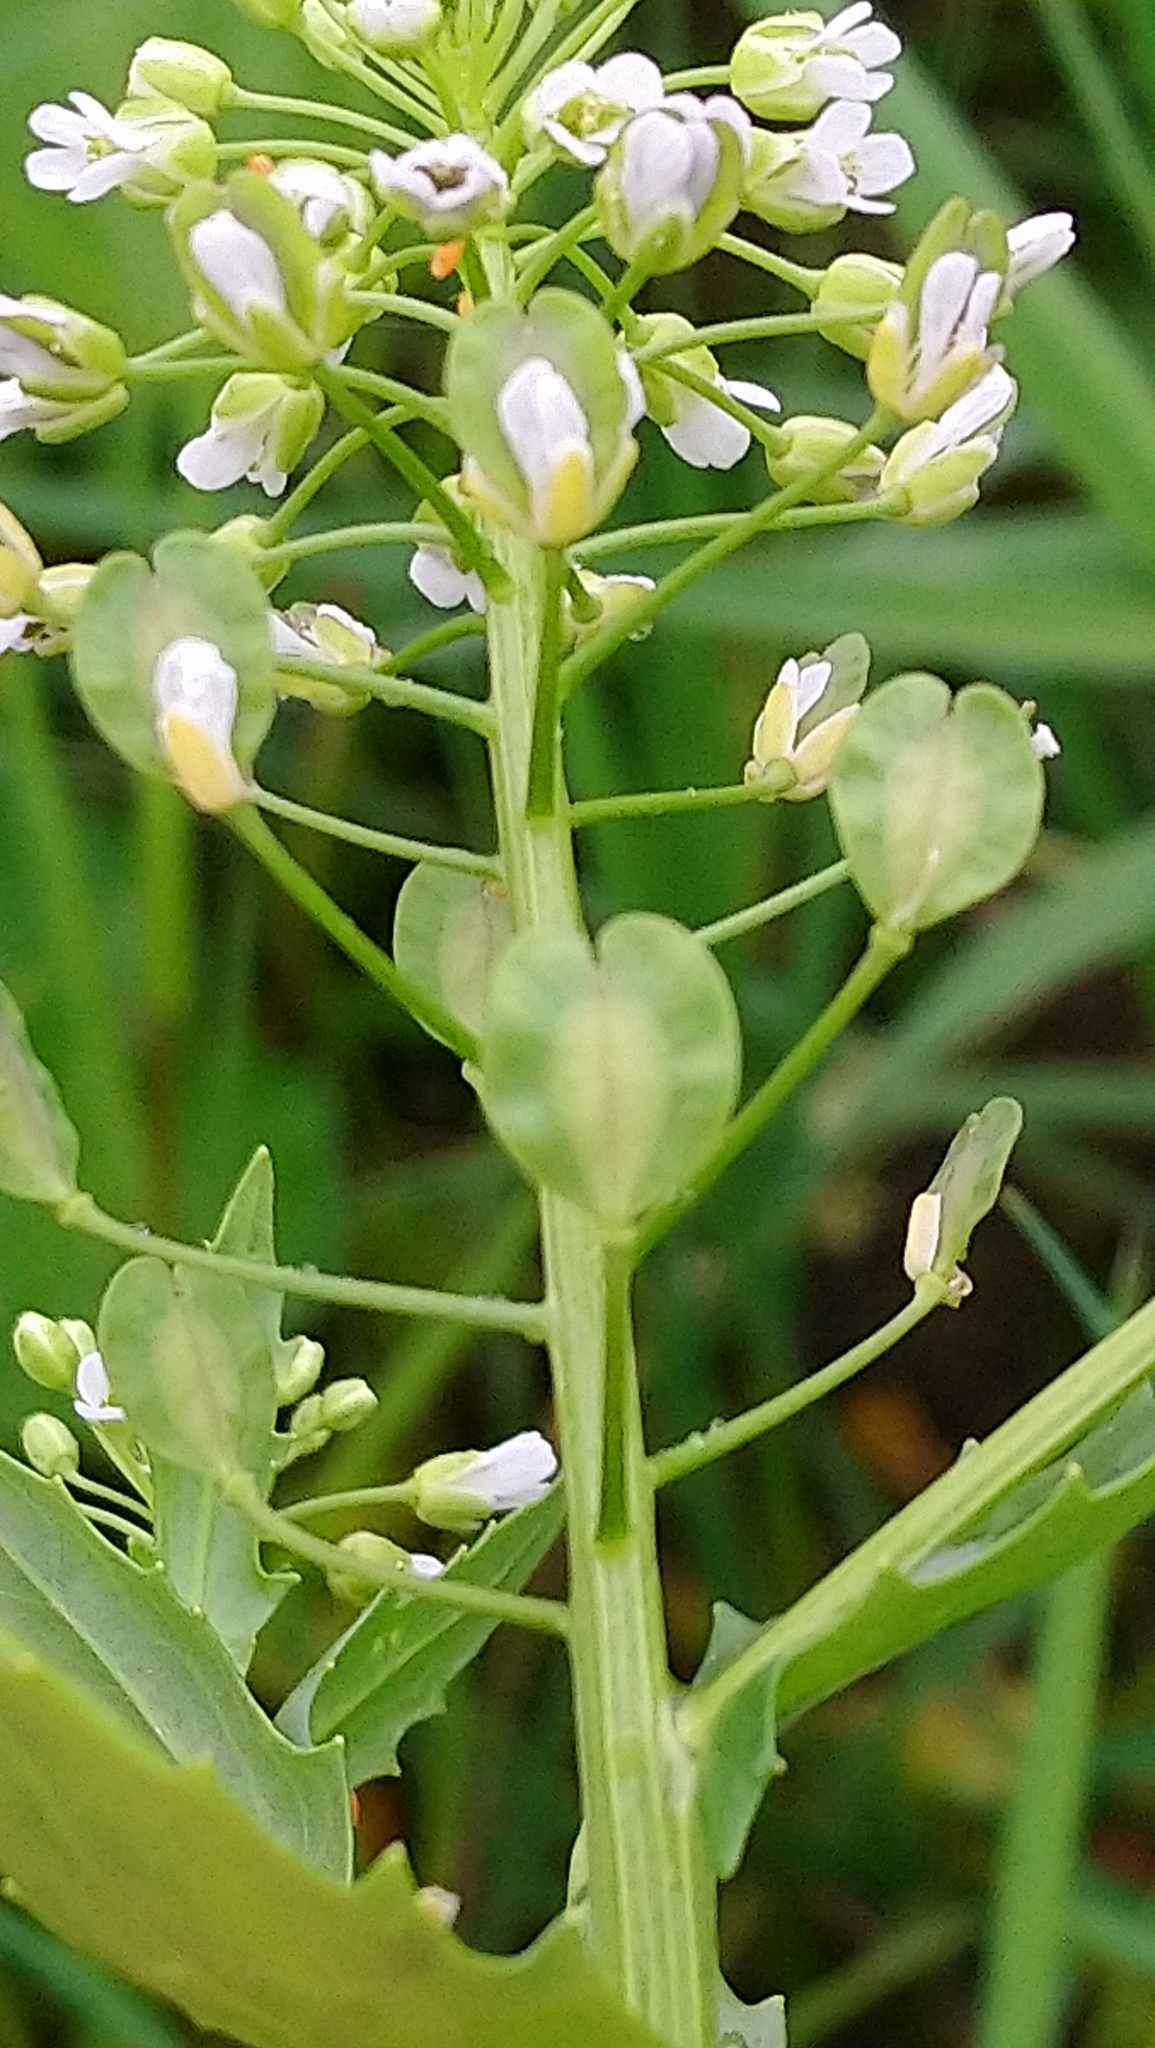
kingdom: Plantae
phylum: Tracheophyta
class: Magnoliopsida
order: Brassicales
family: Brassicaceae
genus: Thlaspi
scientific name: Thlaspi arvense
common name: Field pennycress
